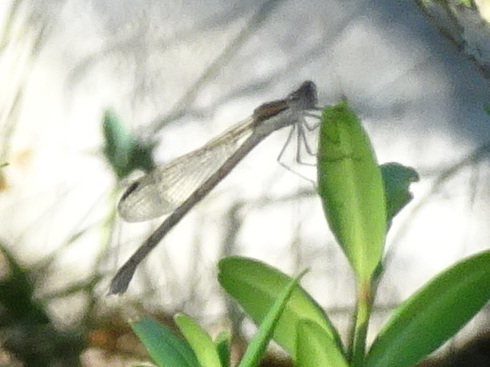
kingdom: Animalia
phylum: Arthropoda
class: Insecta
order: Odonata
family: Lestidae
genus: Sympecma
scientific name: Sympecma fusca
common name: Common winter damsel
